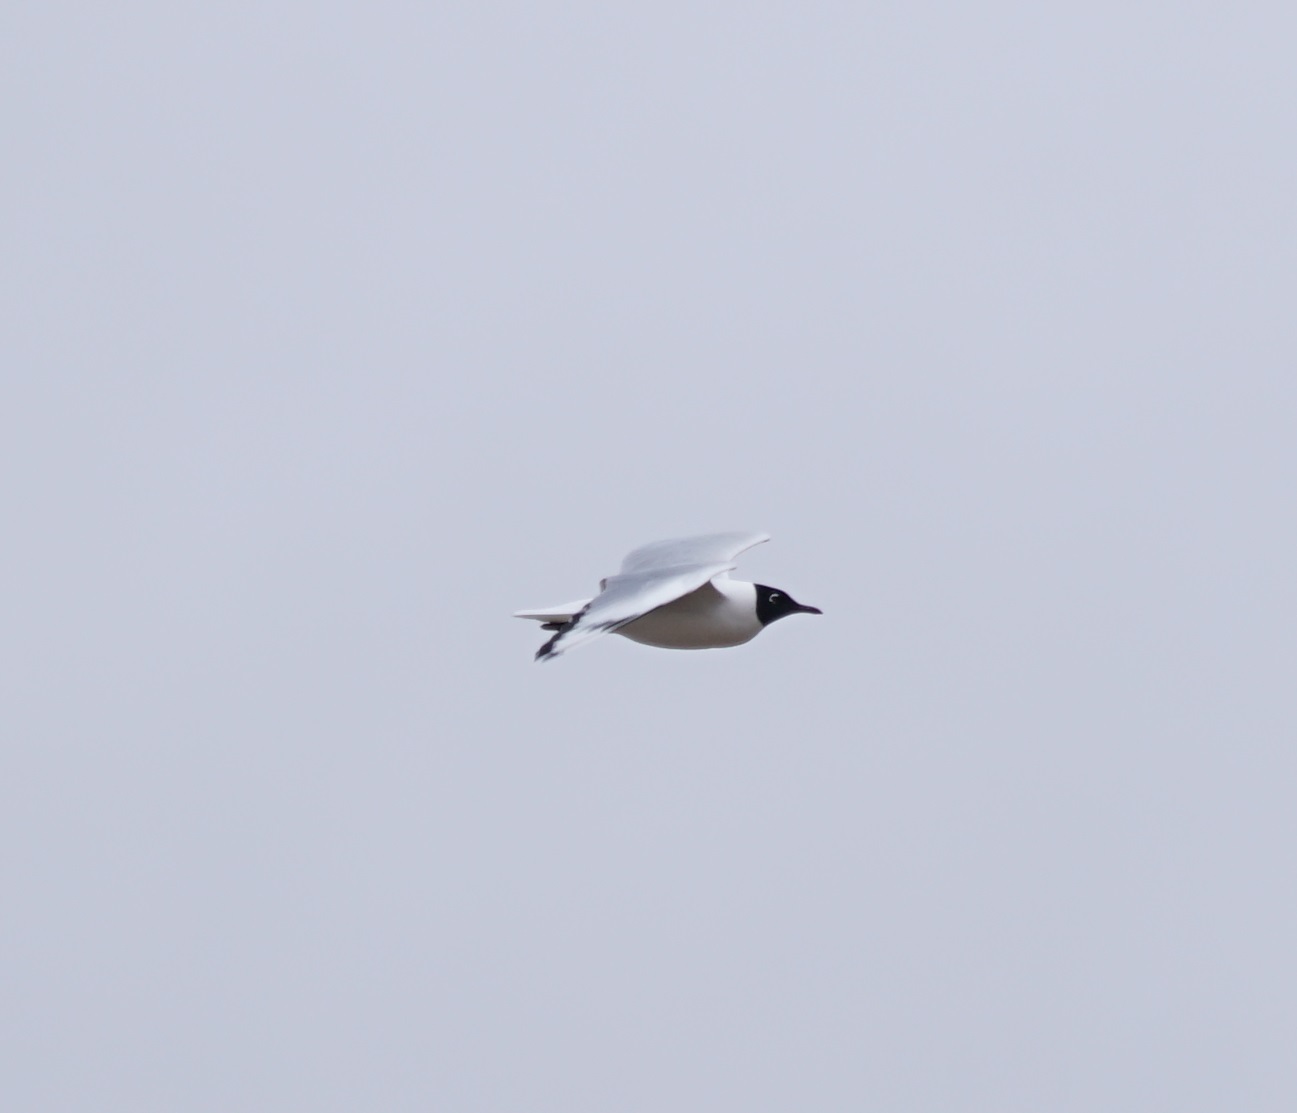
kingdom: Animalia
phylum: Chordata
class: Aves
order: Charadriiformes
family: Laridae
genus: Chroicocephalus
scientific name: Chroicocephalus serranus
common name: Andean gull
